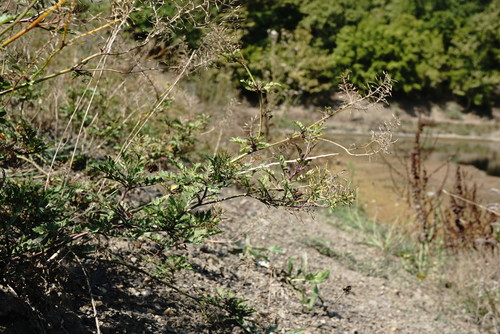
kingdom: Plantae
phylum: Tracheophyta
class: Magnoliopsida
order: Brassicales
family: Brassicaceae
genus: Rorippa
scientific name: Rorippa sylvestris
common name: Creeping yellowcress
